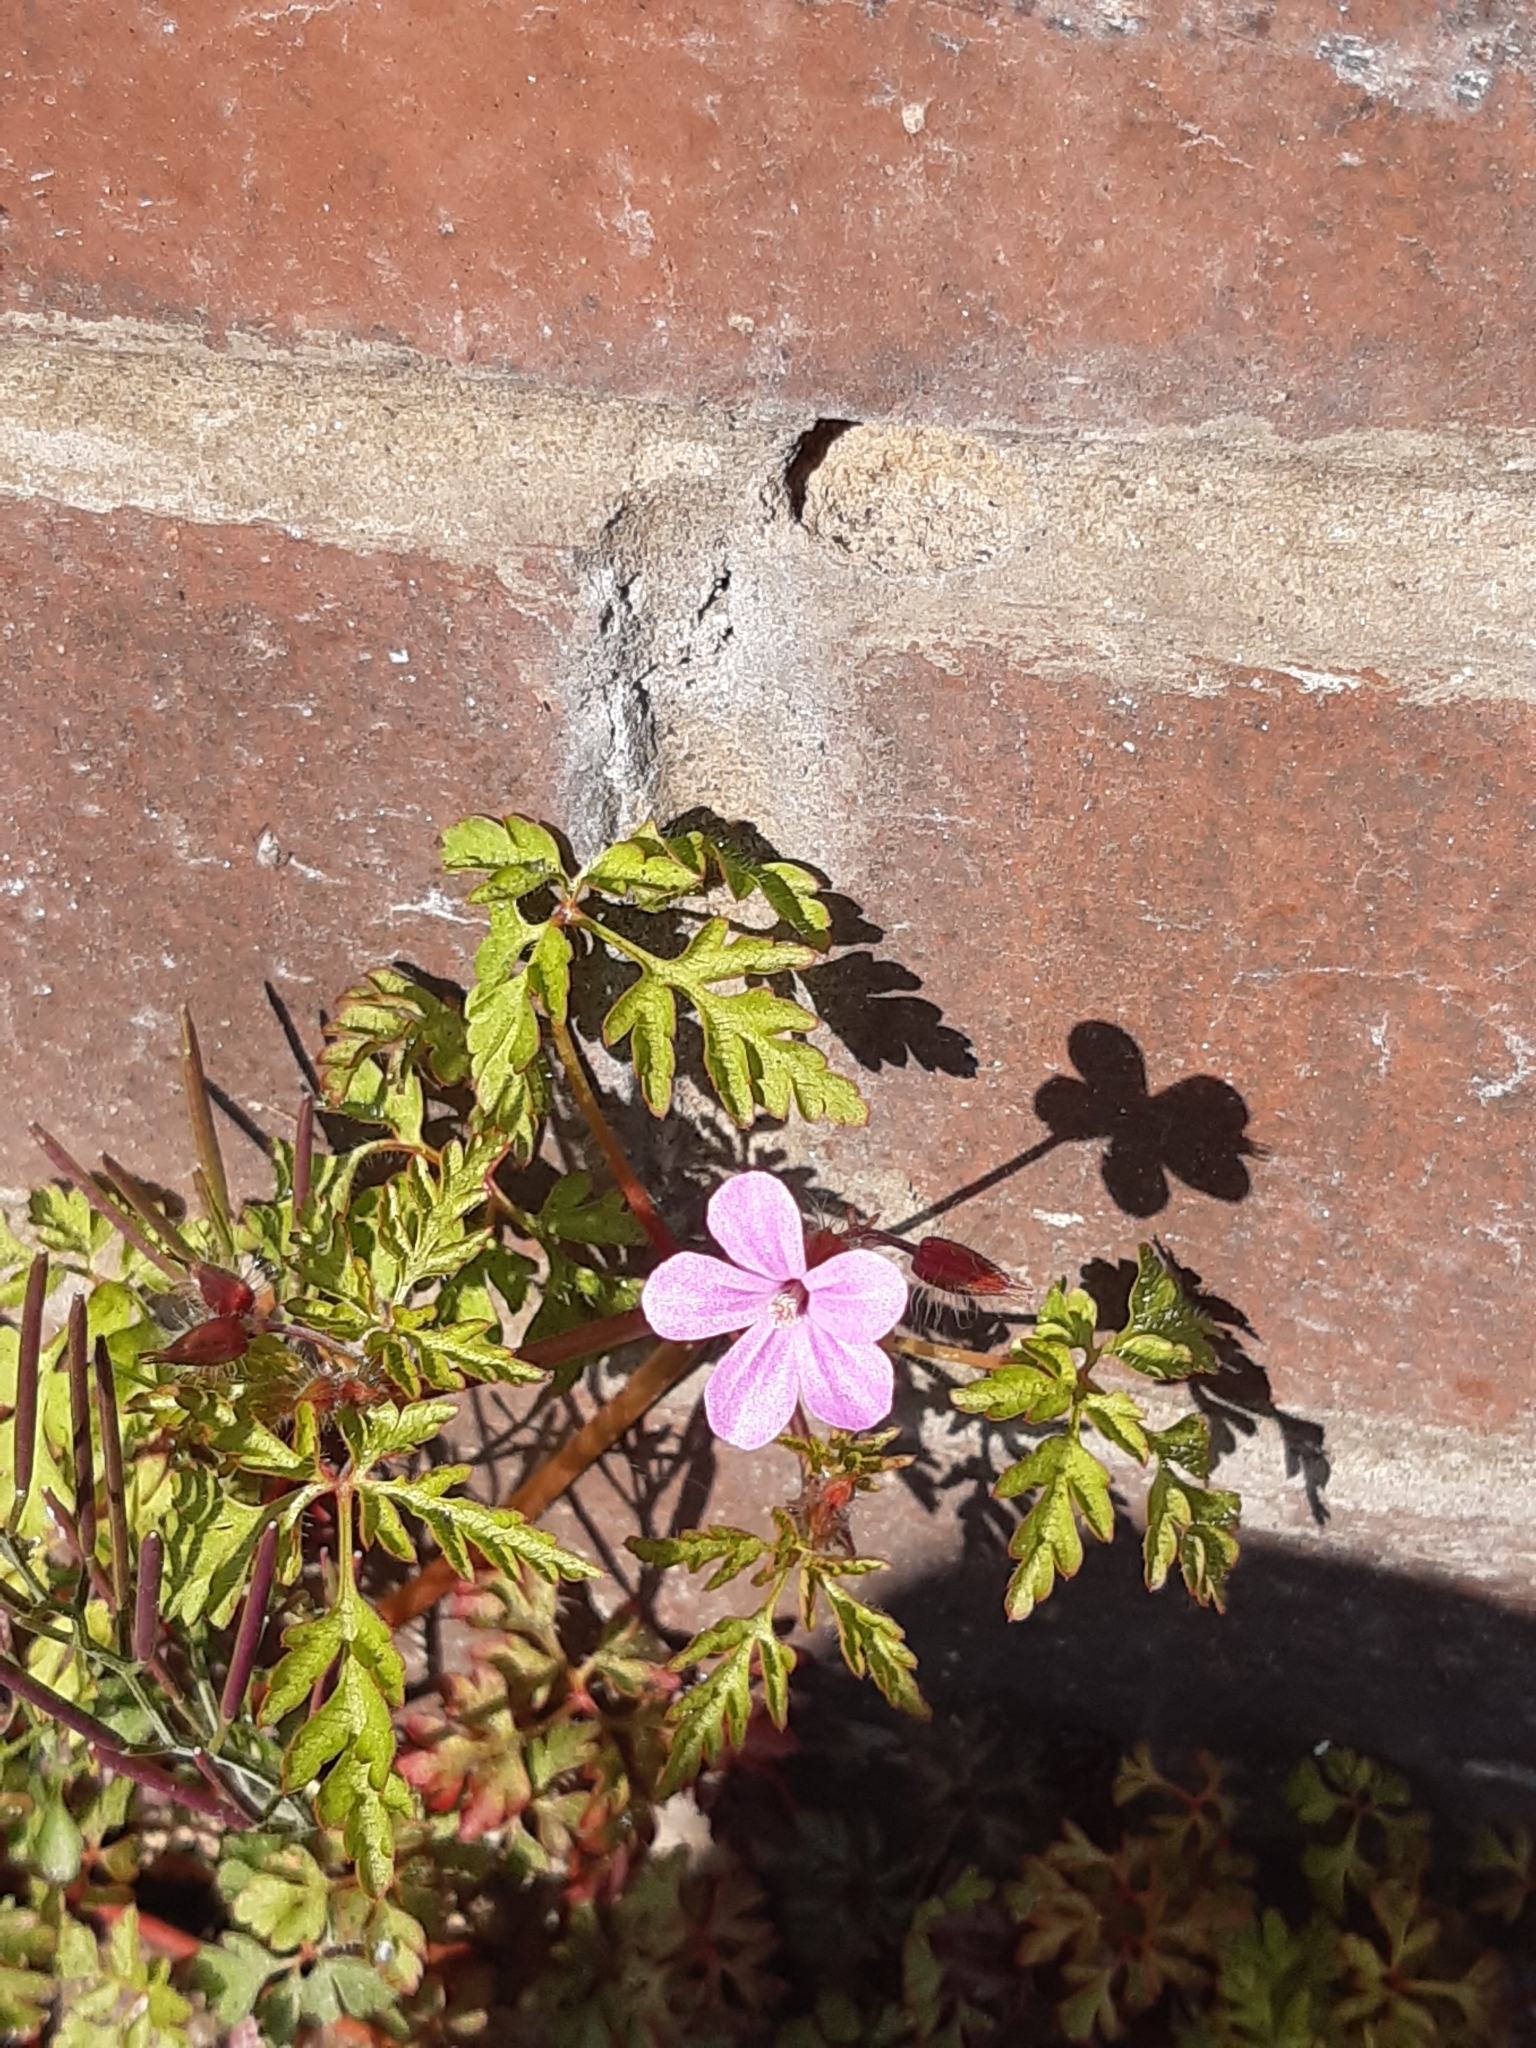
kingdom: Plantae
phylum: Tracheophyta
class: Magnoliopsida
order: Geraniales
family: Geraniaceae
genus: Geranium
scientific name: Geranium robertianum
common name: Herb-robert
